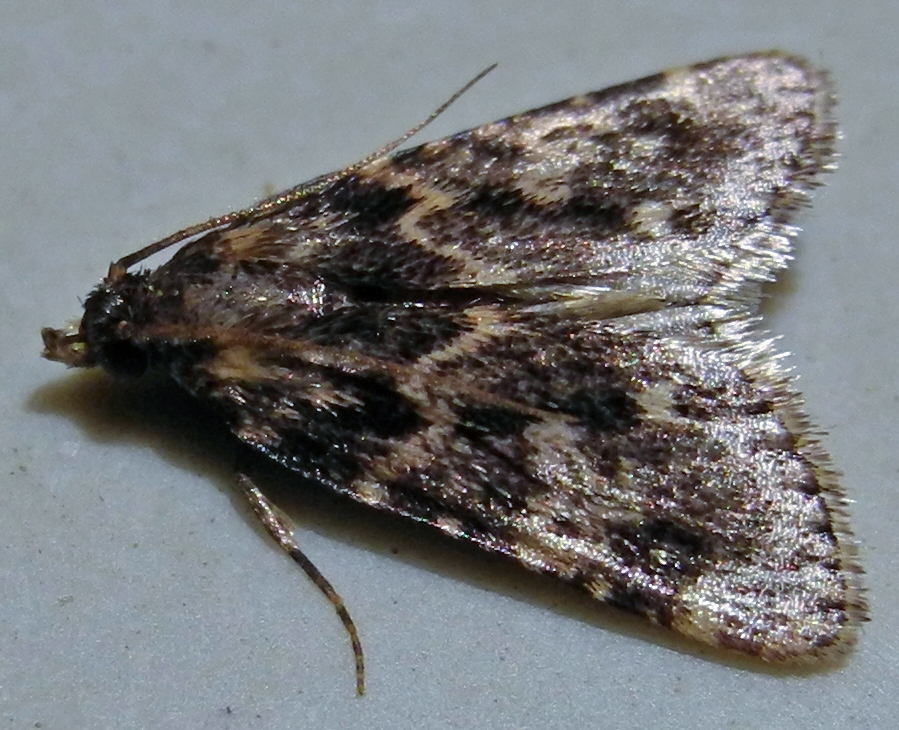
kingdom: Animalia
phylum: Arthropoda
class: Insecta
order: Lepidoptera
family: Pyralidae
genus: Aglossa
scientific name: Aglossa caprealis
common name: Small tabby
